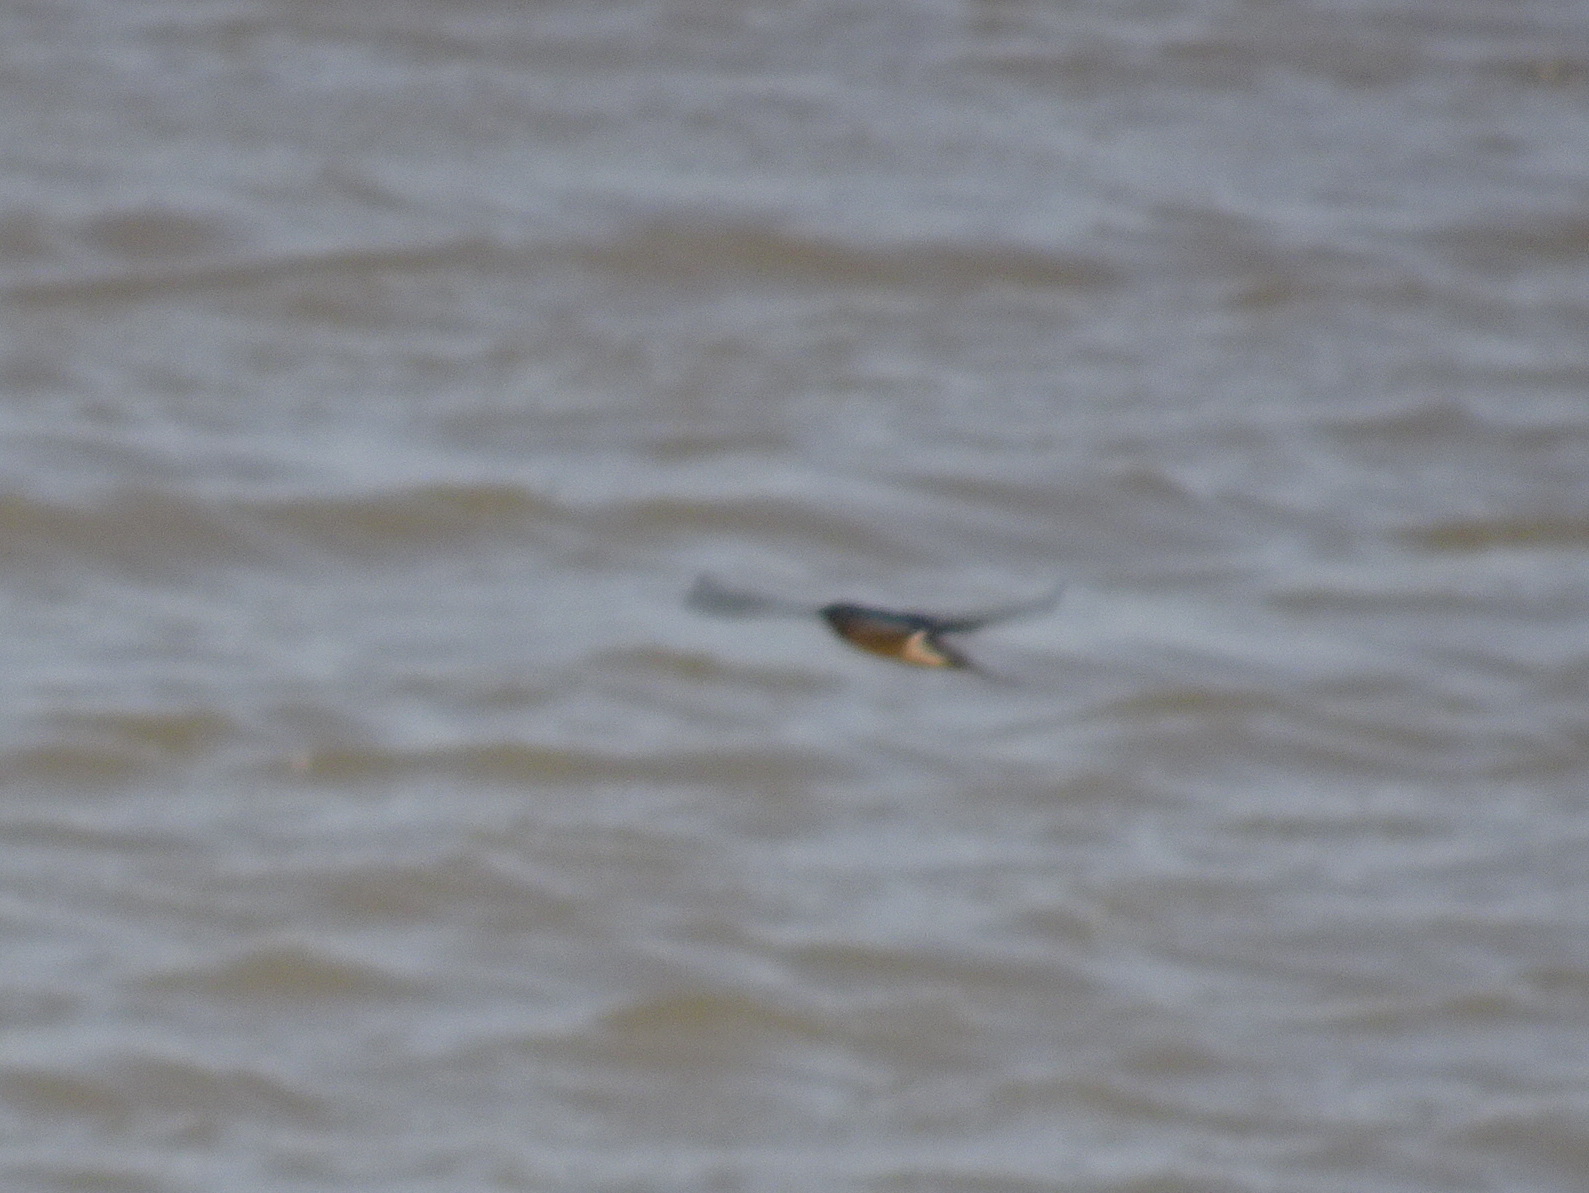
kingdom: Animalia
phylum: Chordata
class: Aves
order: Passeriformes
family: Hirundinidae
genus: Hirundo
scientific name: Hirundo rustica
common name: Barn swallow
